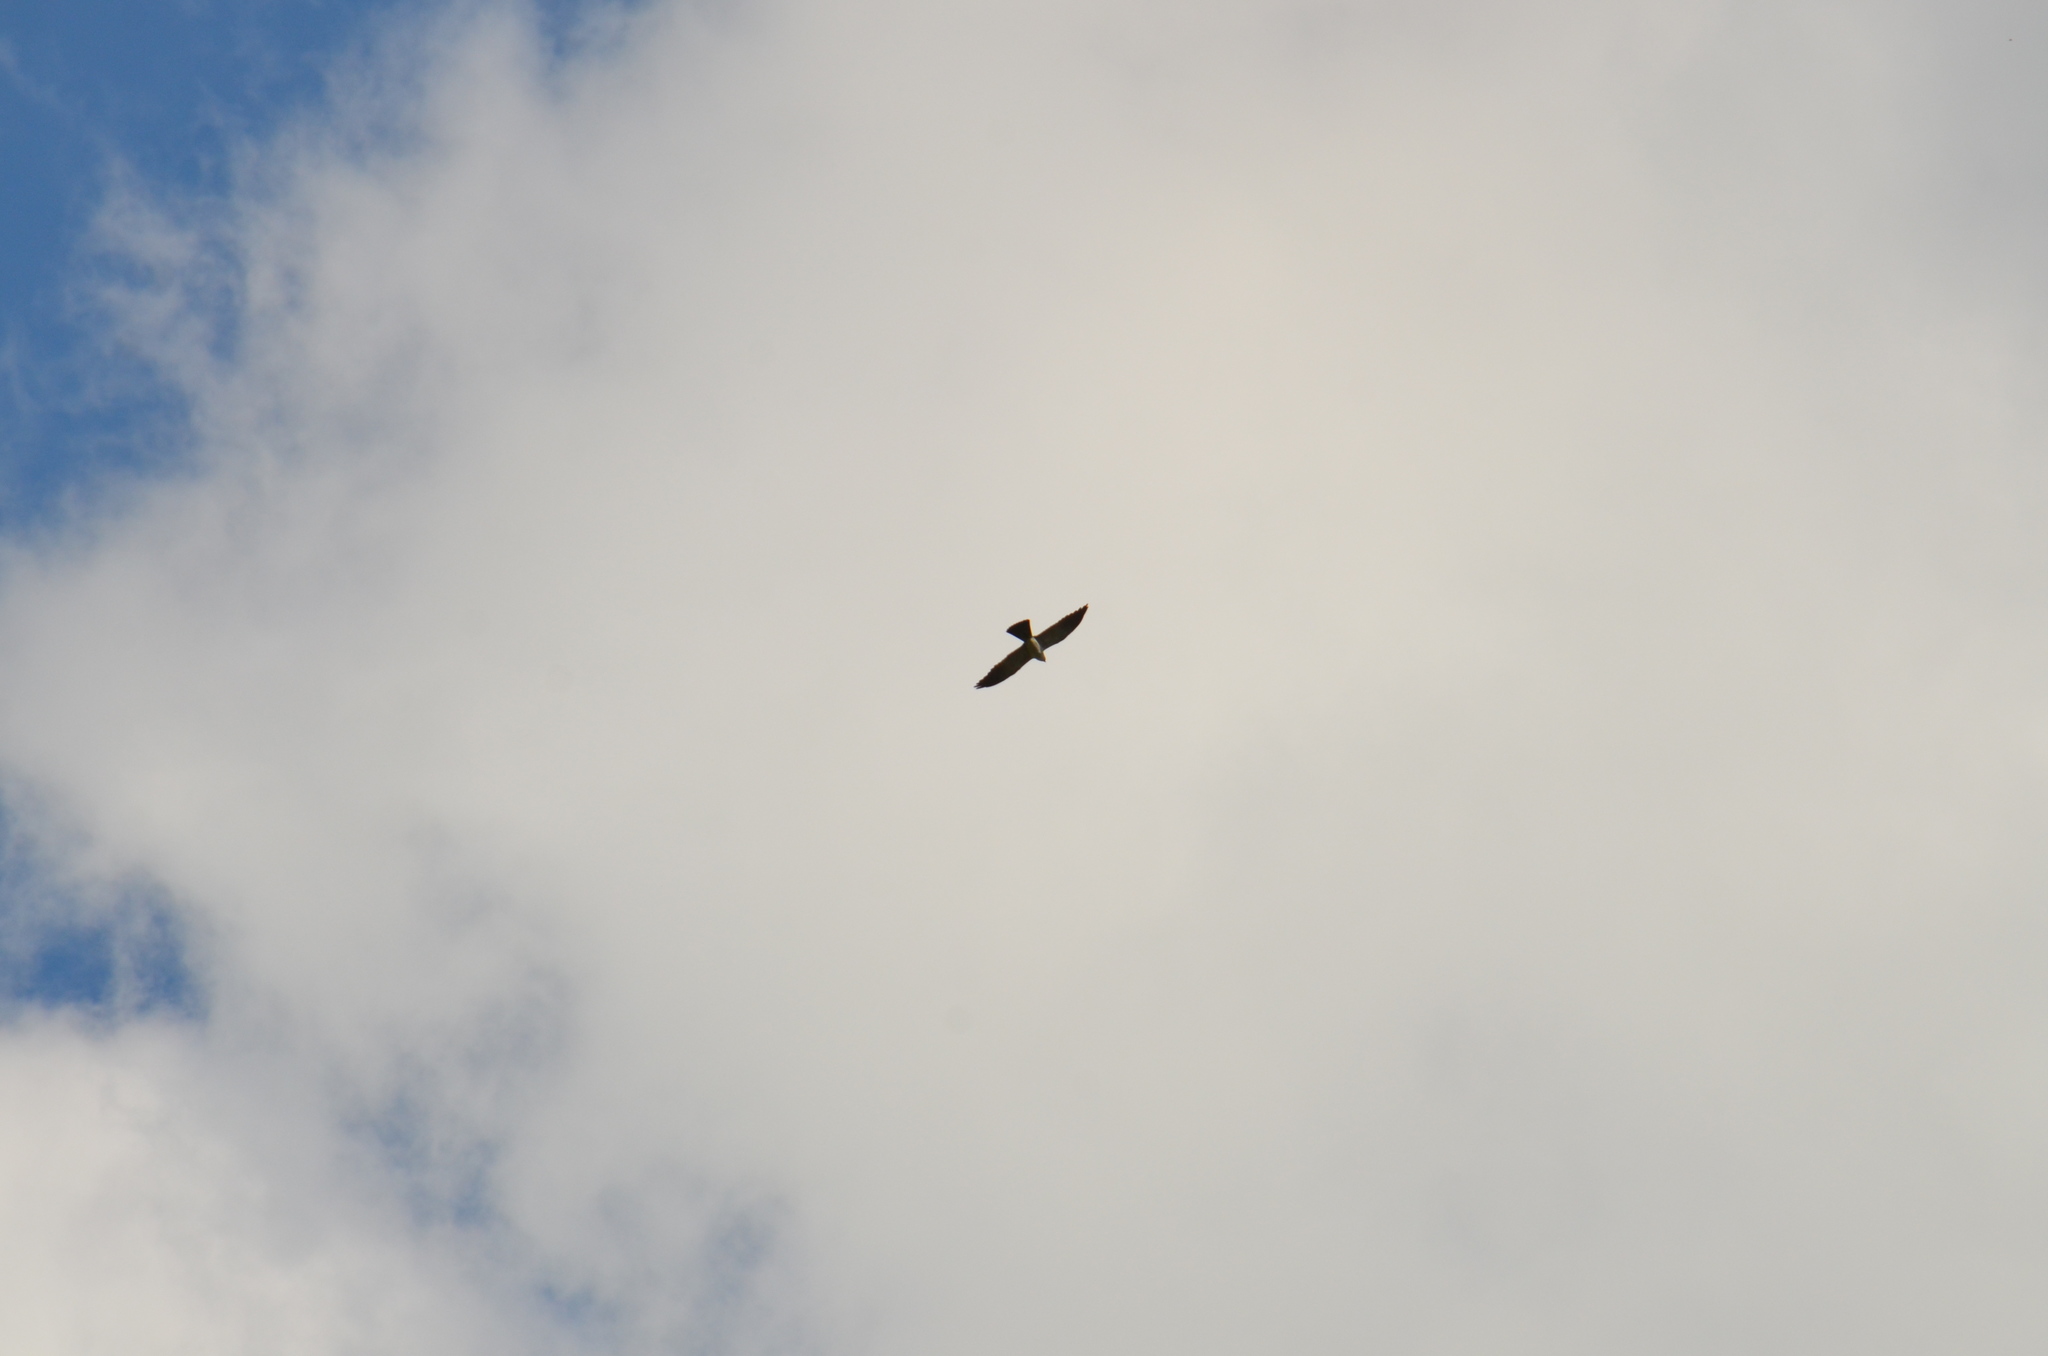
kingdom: Animalia
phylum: Chordata
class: Aves
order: Accipitriformes
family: Accipitridae
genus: Ictinia
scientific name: Ictinia mississippiensis
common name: Mississippi kite
